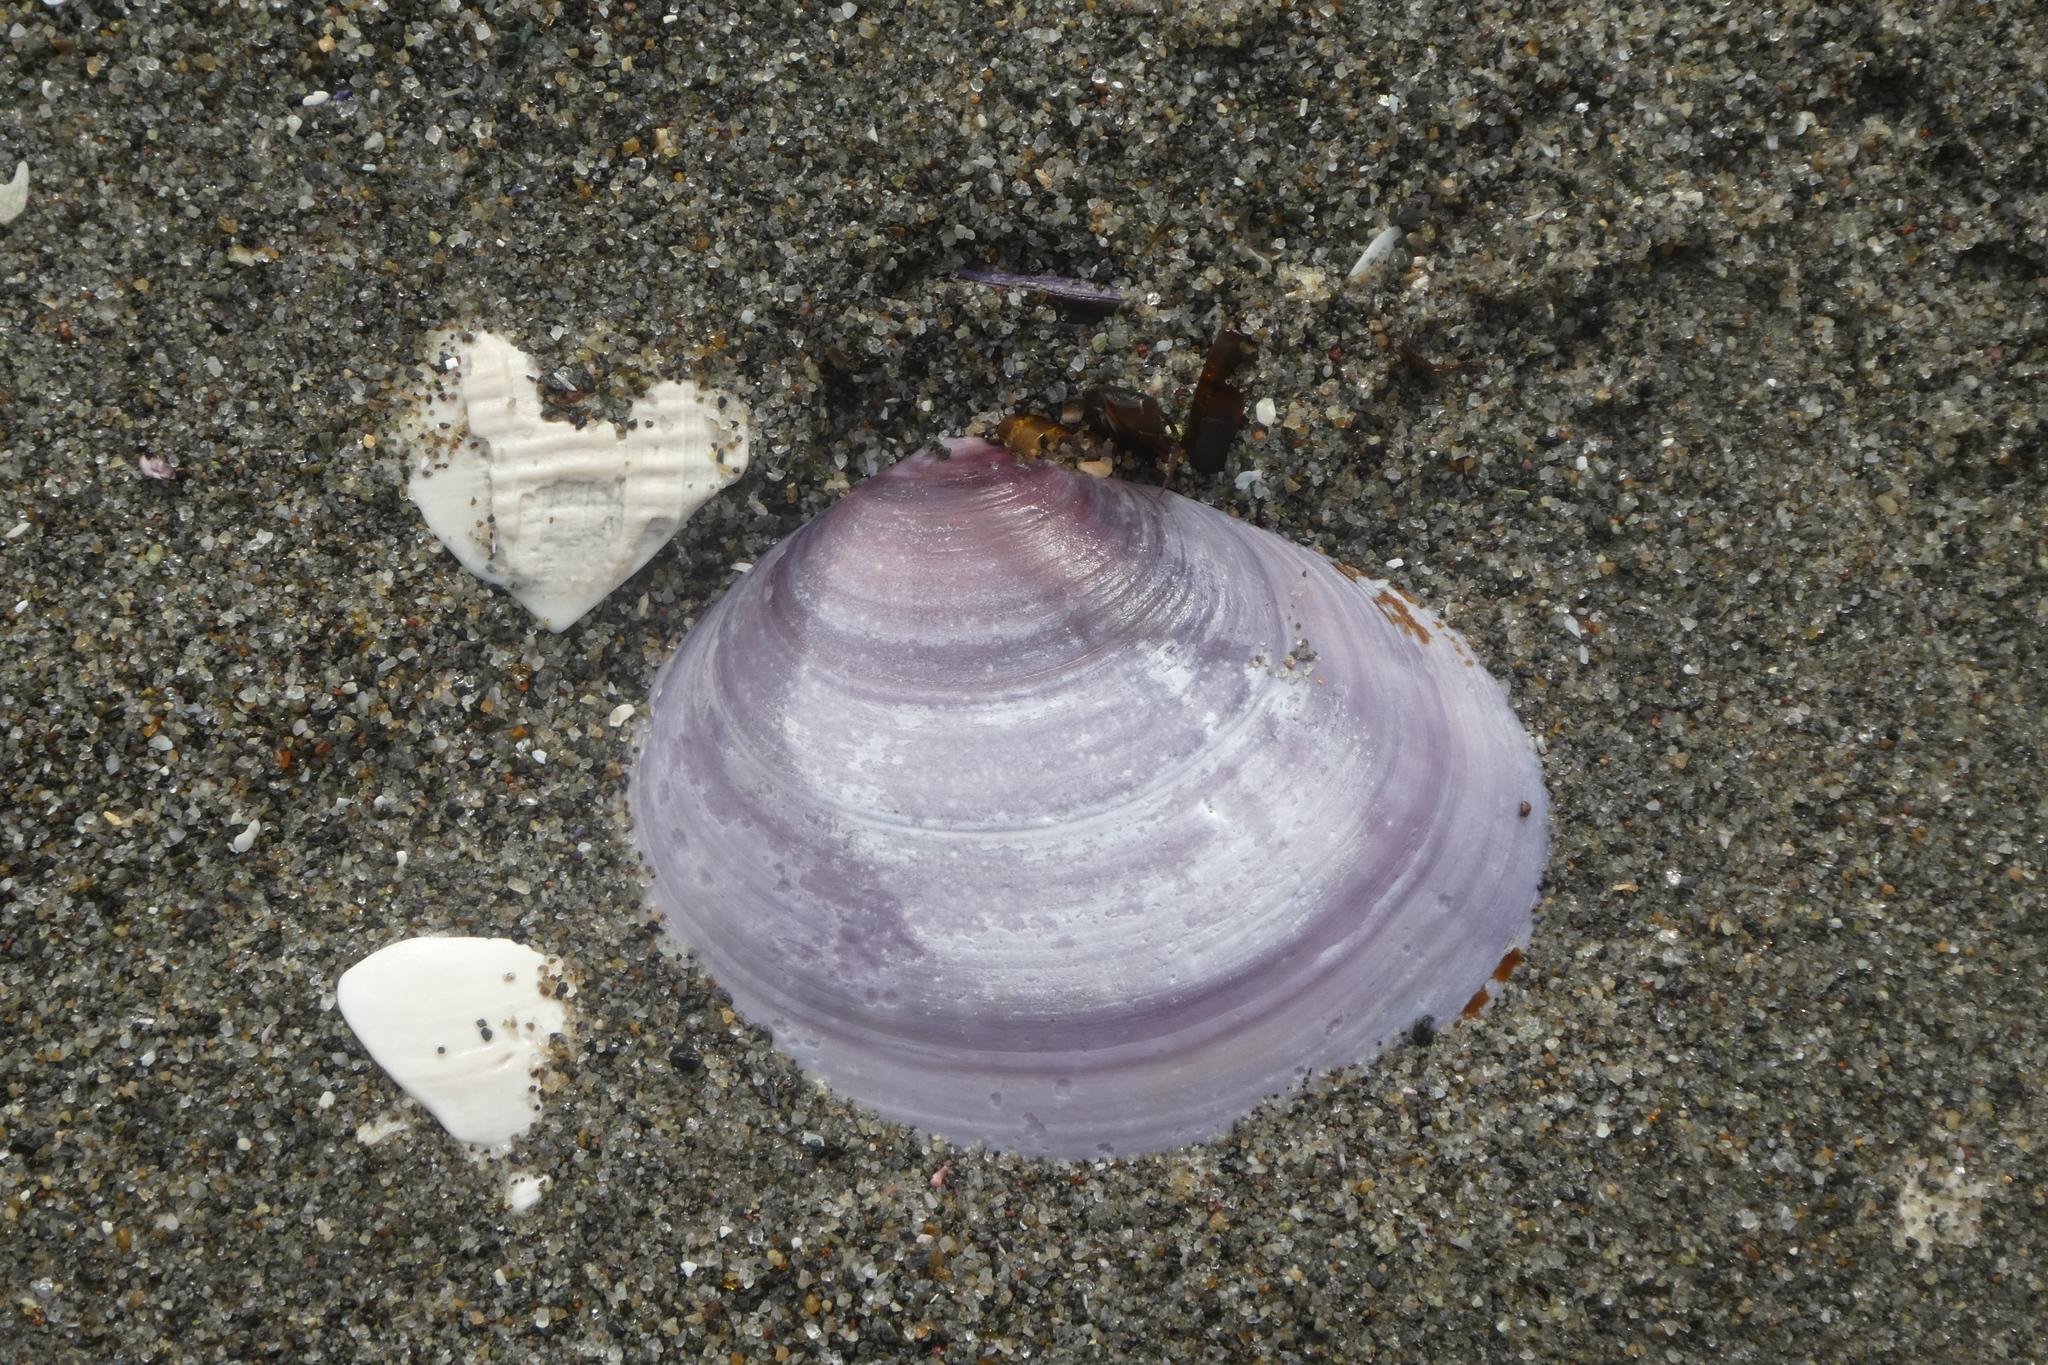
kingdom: Animalia
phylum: Mollusca
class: Bivalvia
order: Cardiida
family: Psammobiidae
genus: Nuttallia
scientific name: Nuttallia obscurata
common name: Purple mahogany-clam
